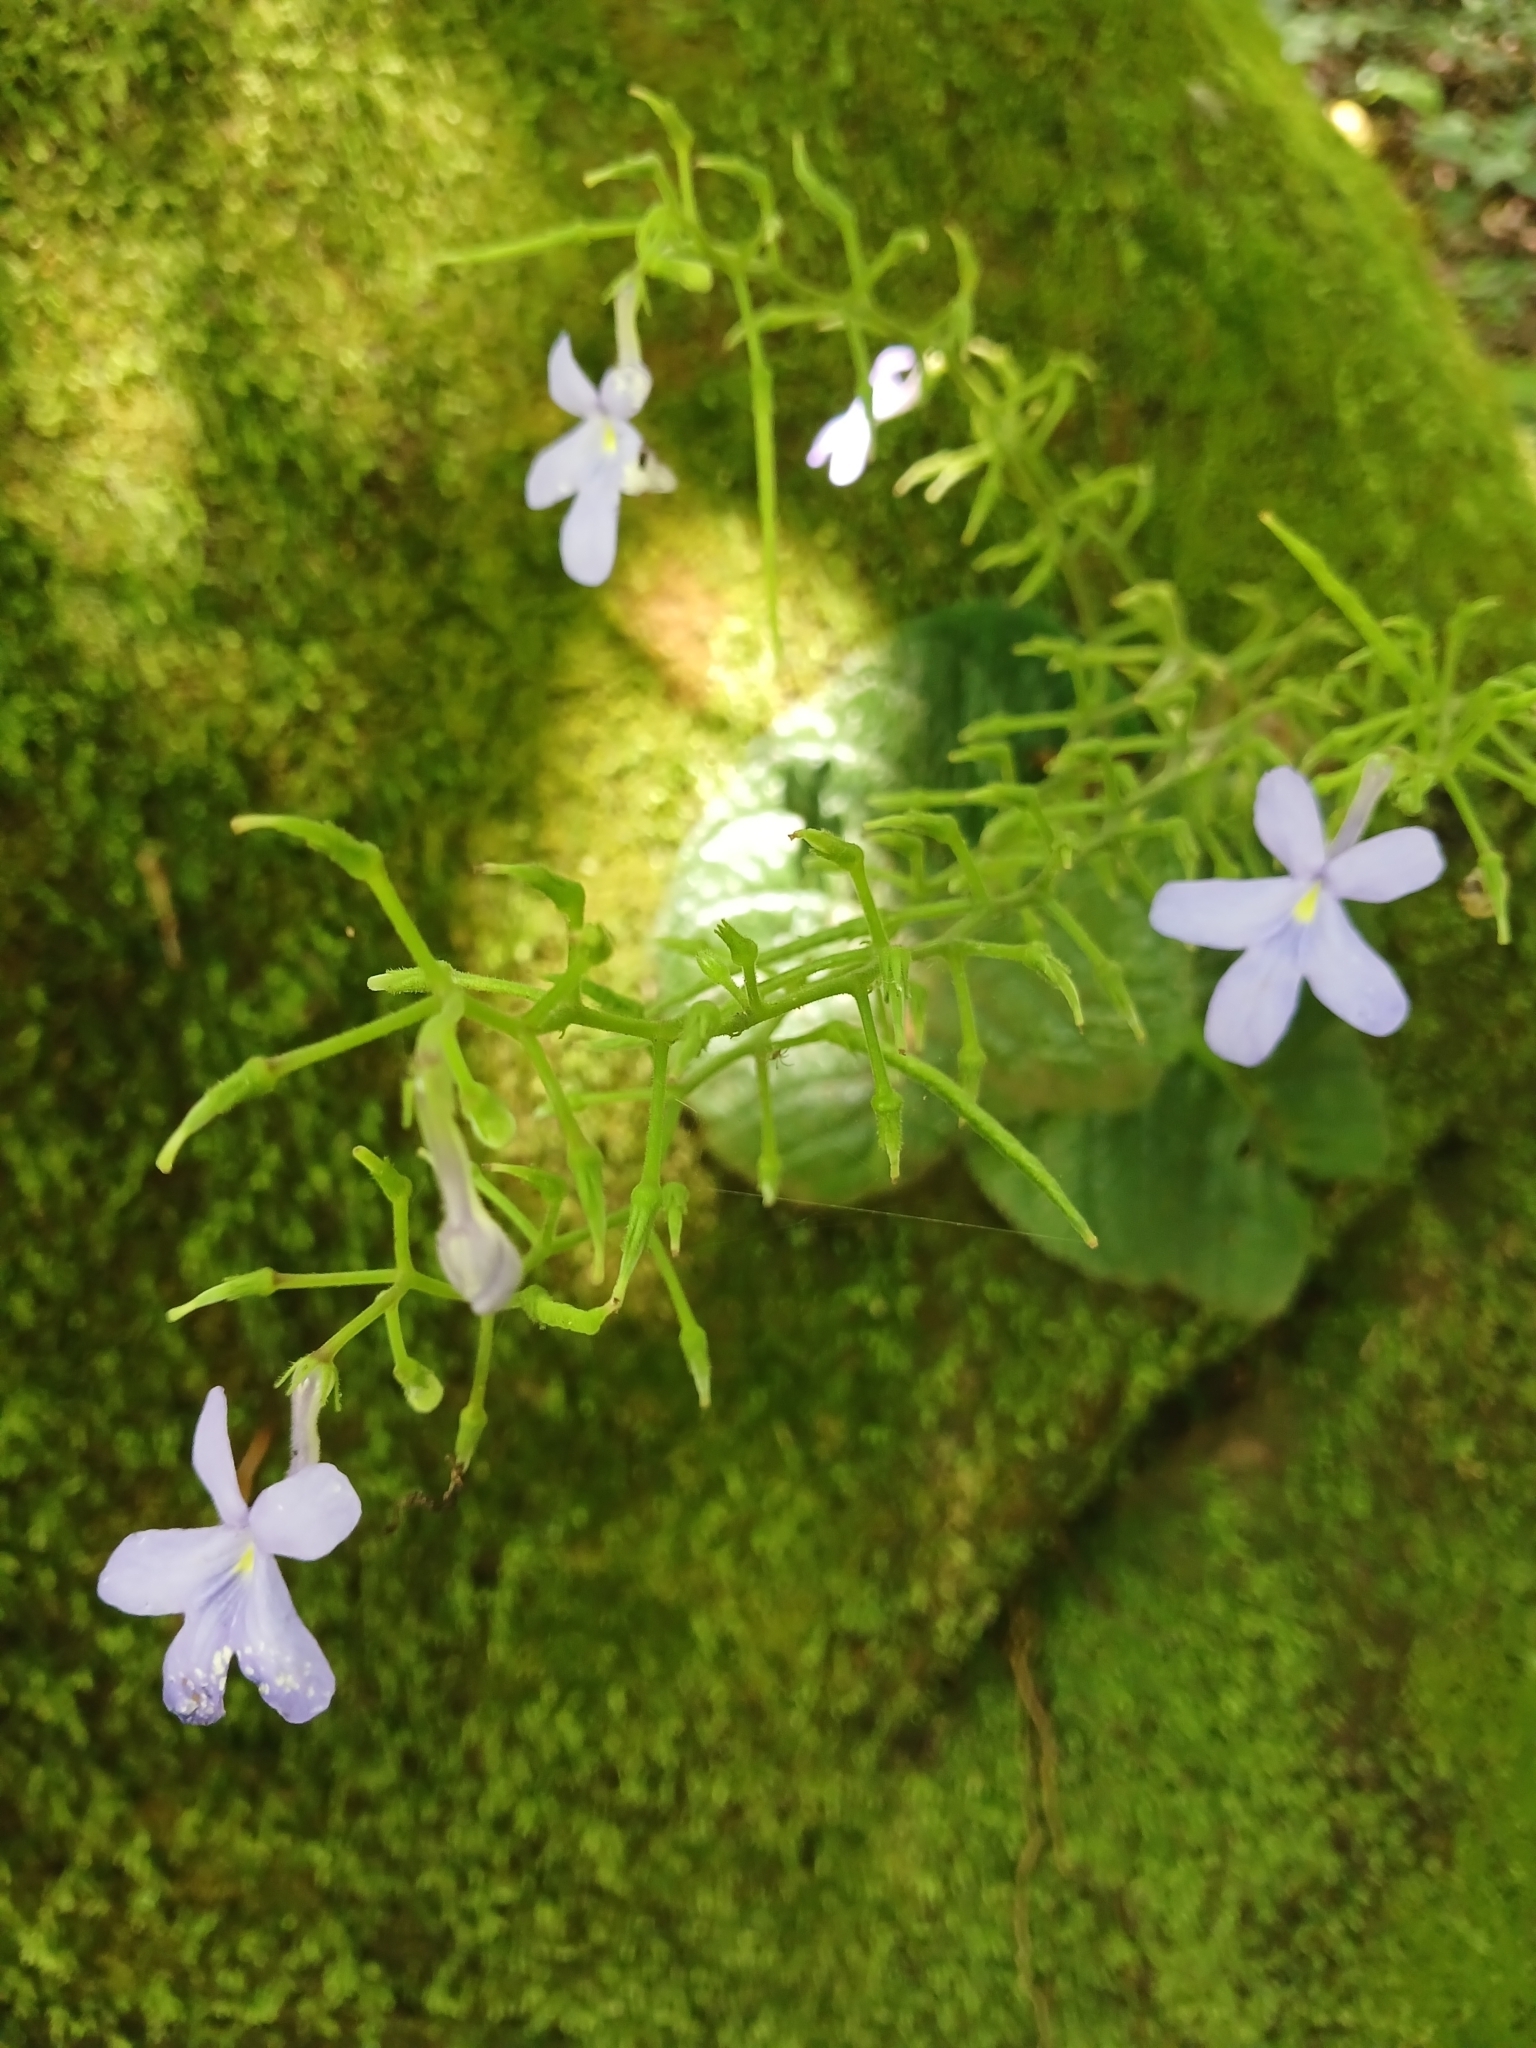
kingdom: Plantae
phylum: Tracheophyta
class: Magnoliopsida
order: Lamiales
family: Gesneriaceae
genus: Streptocarpus
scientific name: Streptocarpus polyanthus
